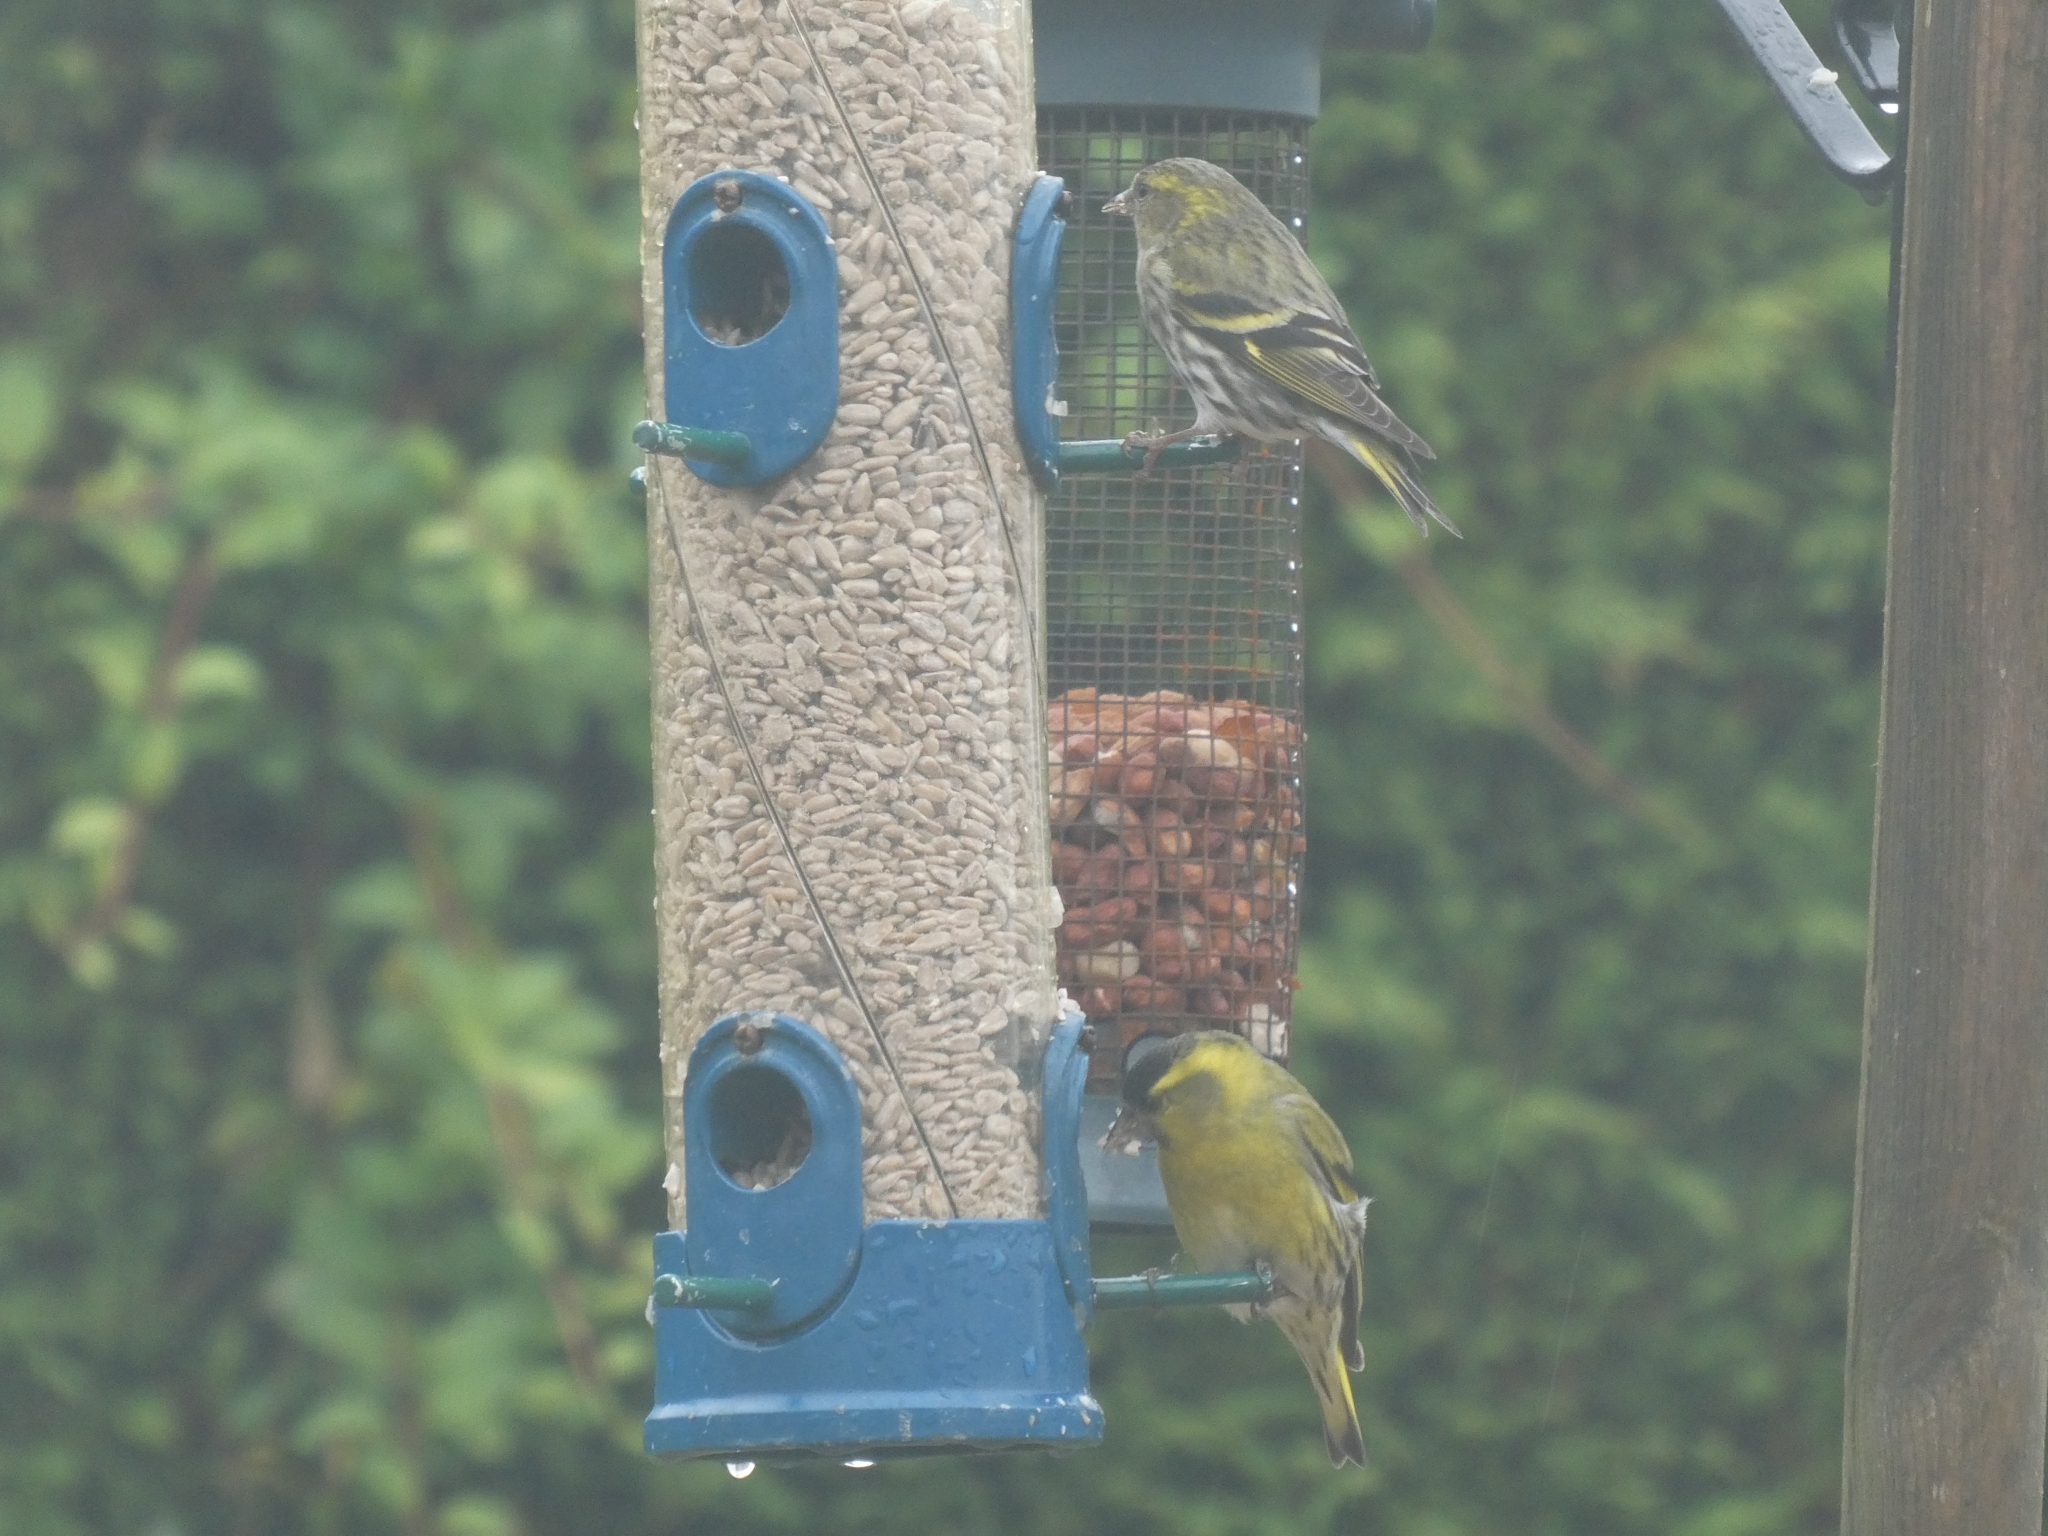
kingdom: Animalia
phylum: Chordata
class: Aves
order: Passeriformes
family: Fringillidae
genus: Spinus
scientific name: Spinus spinus
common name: Eurasian siskin
